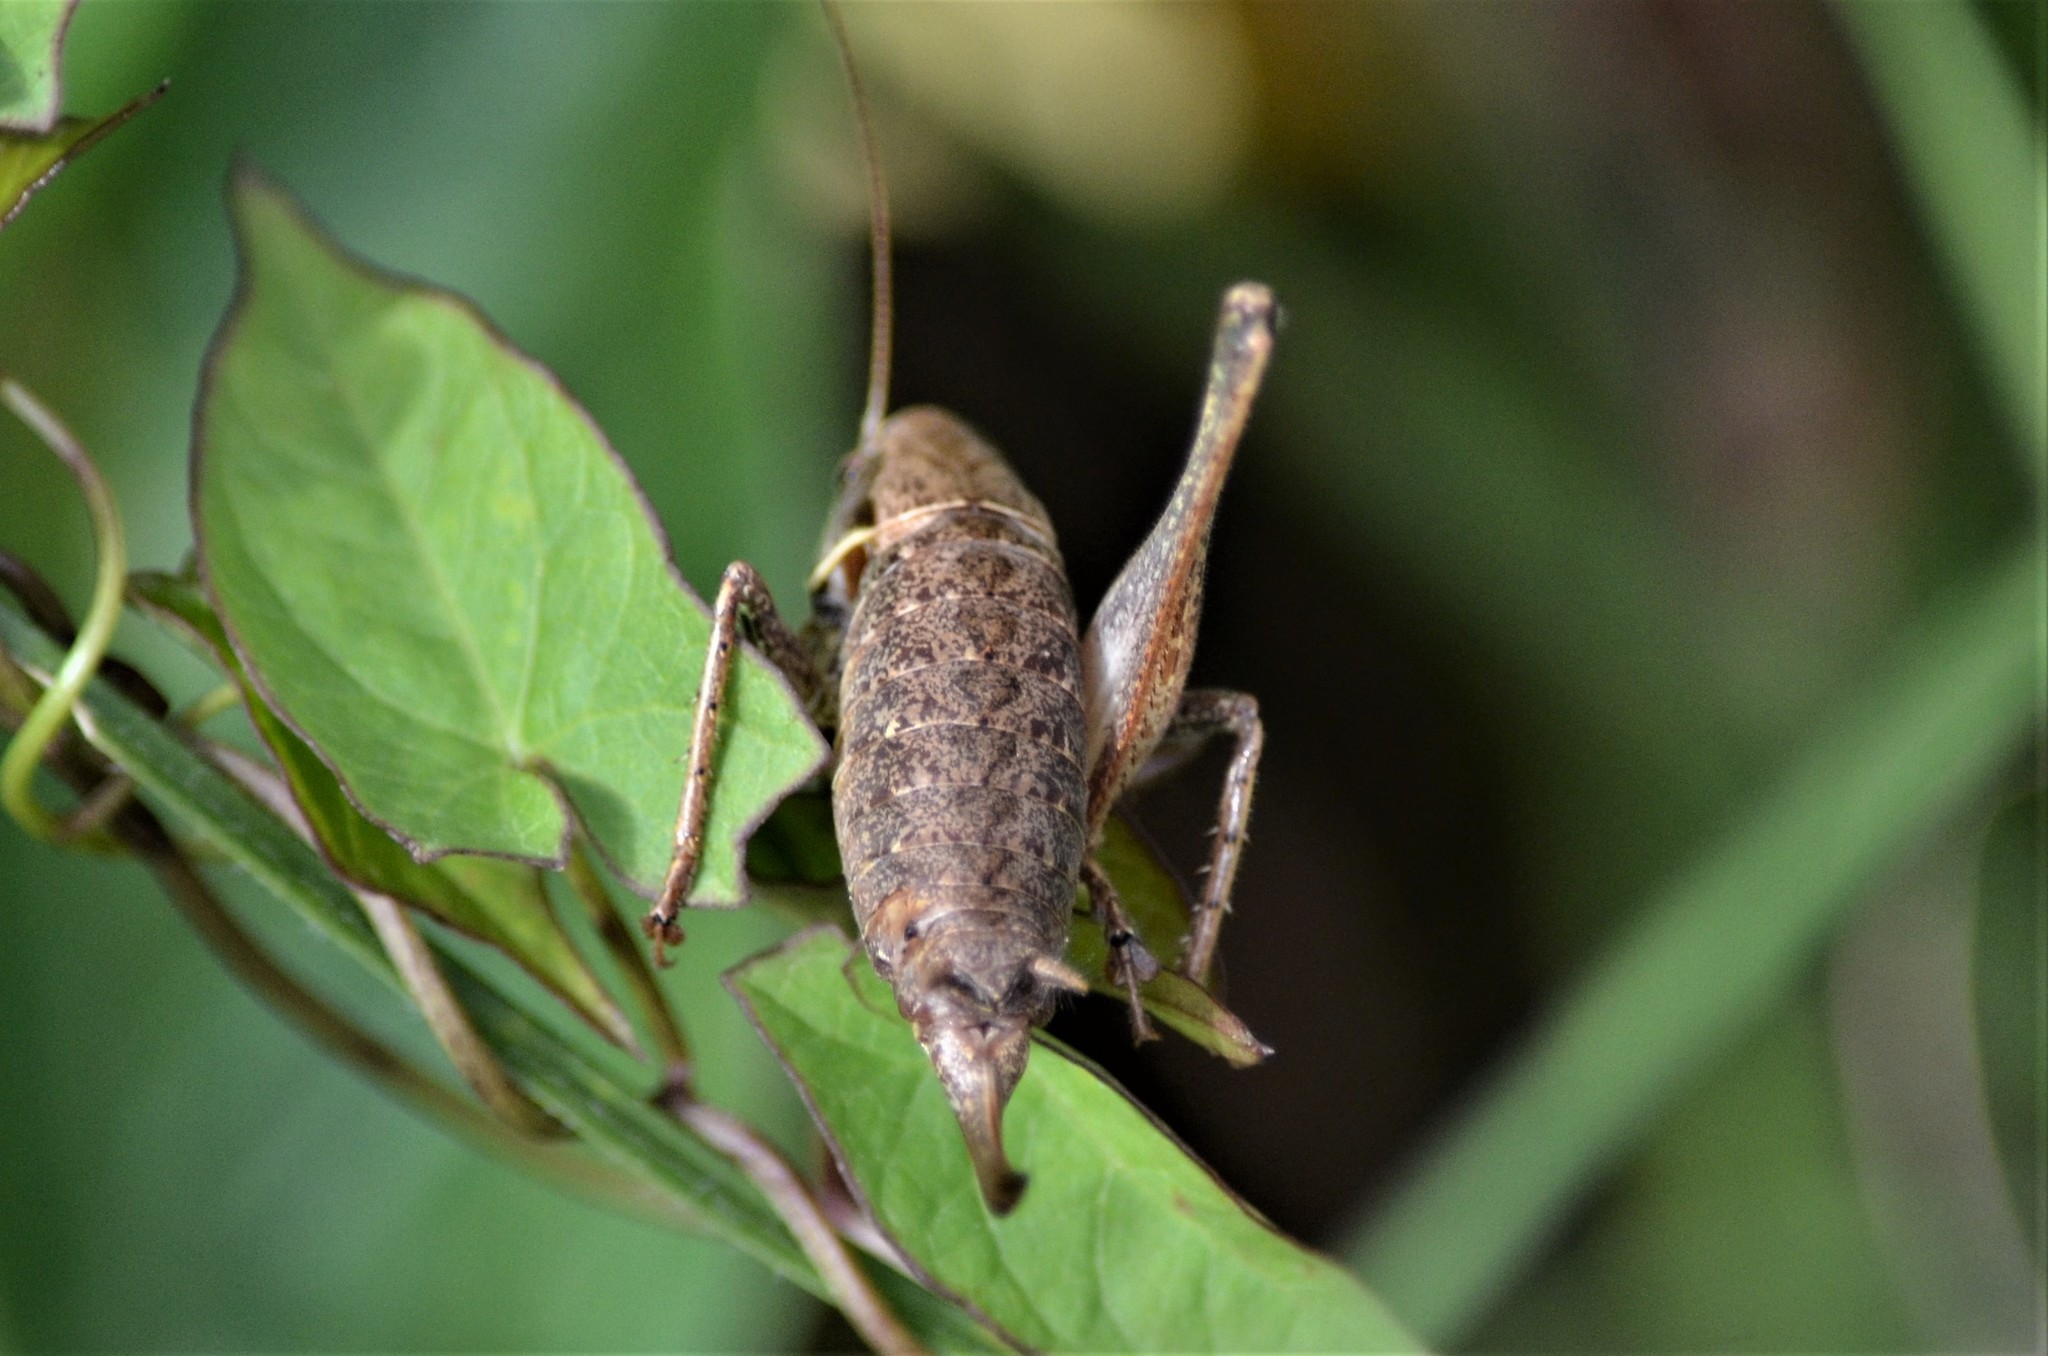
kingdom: Animalia
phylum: Arthropoda
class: Insecta
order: Orthoptera
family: Tettigoniidae
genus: Pholidoptera
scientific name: Pholidoptera griseoaptera
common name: Dark bush-cricket
